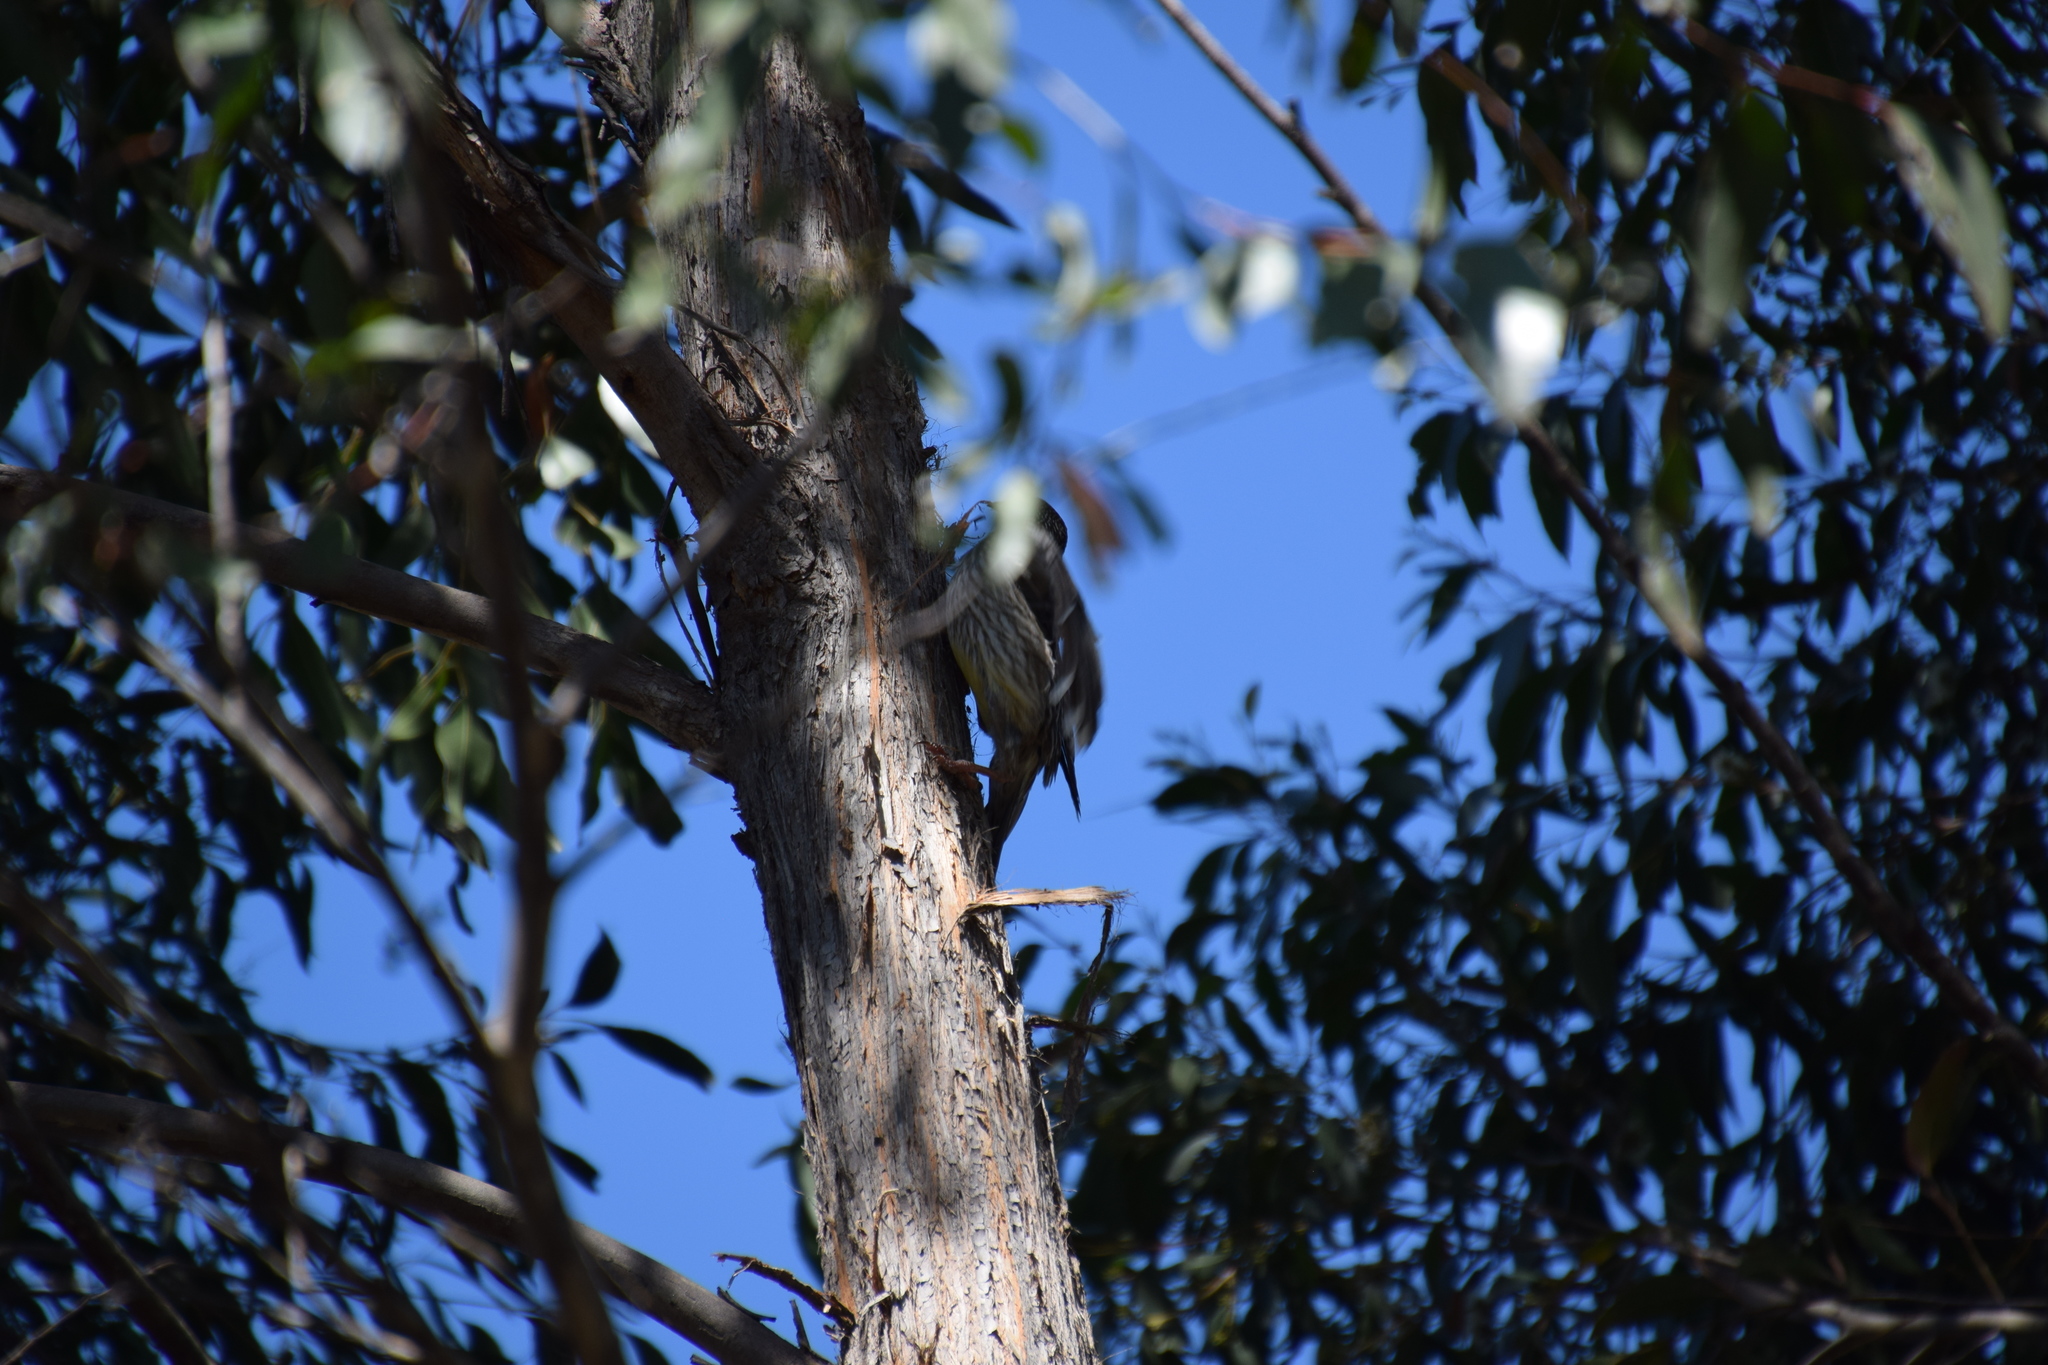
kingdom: Animalia
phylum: Chordata
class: Aves
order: Passeriformes
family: Meliphagidae
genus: Anthochaera
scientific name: Anthochaera carunculata
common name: Red wattlebird
